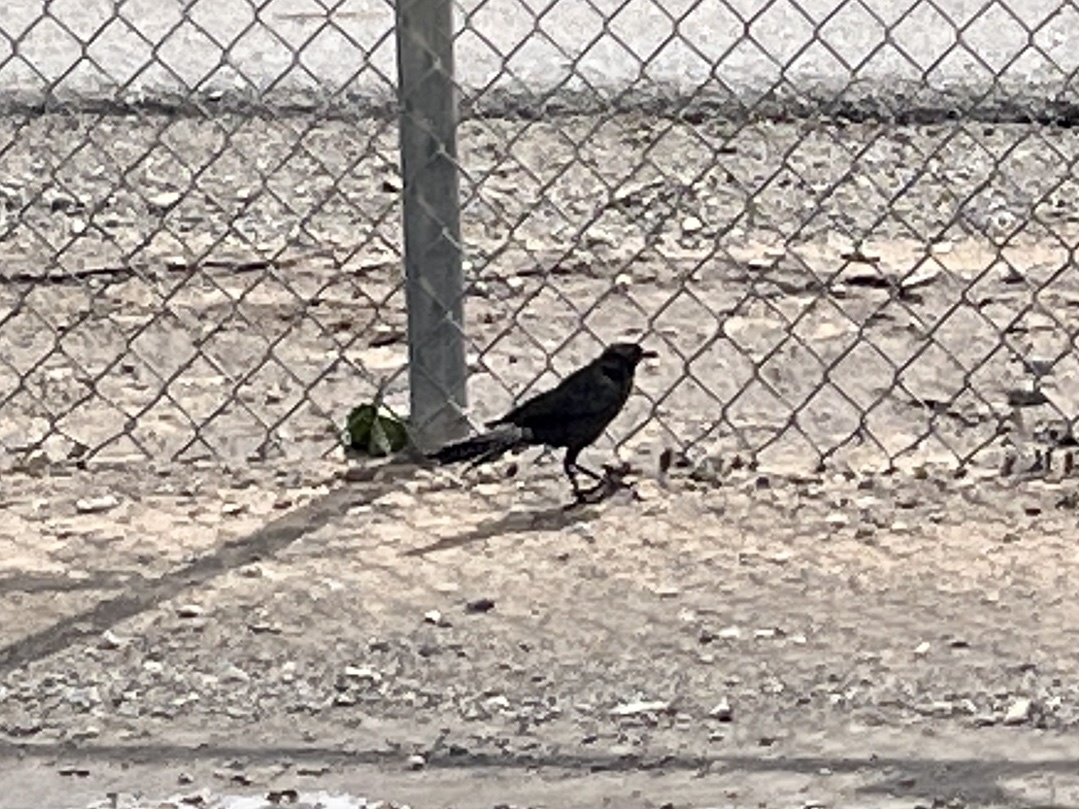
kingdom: Animalia
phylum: Chordata
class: Aves
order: Passeriformes
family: Icteridae
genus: Quiscalus
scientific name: Quiscalus mexicanus
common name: Great-tailed grackle
